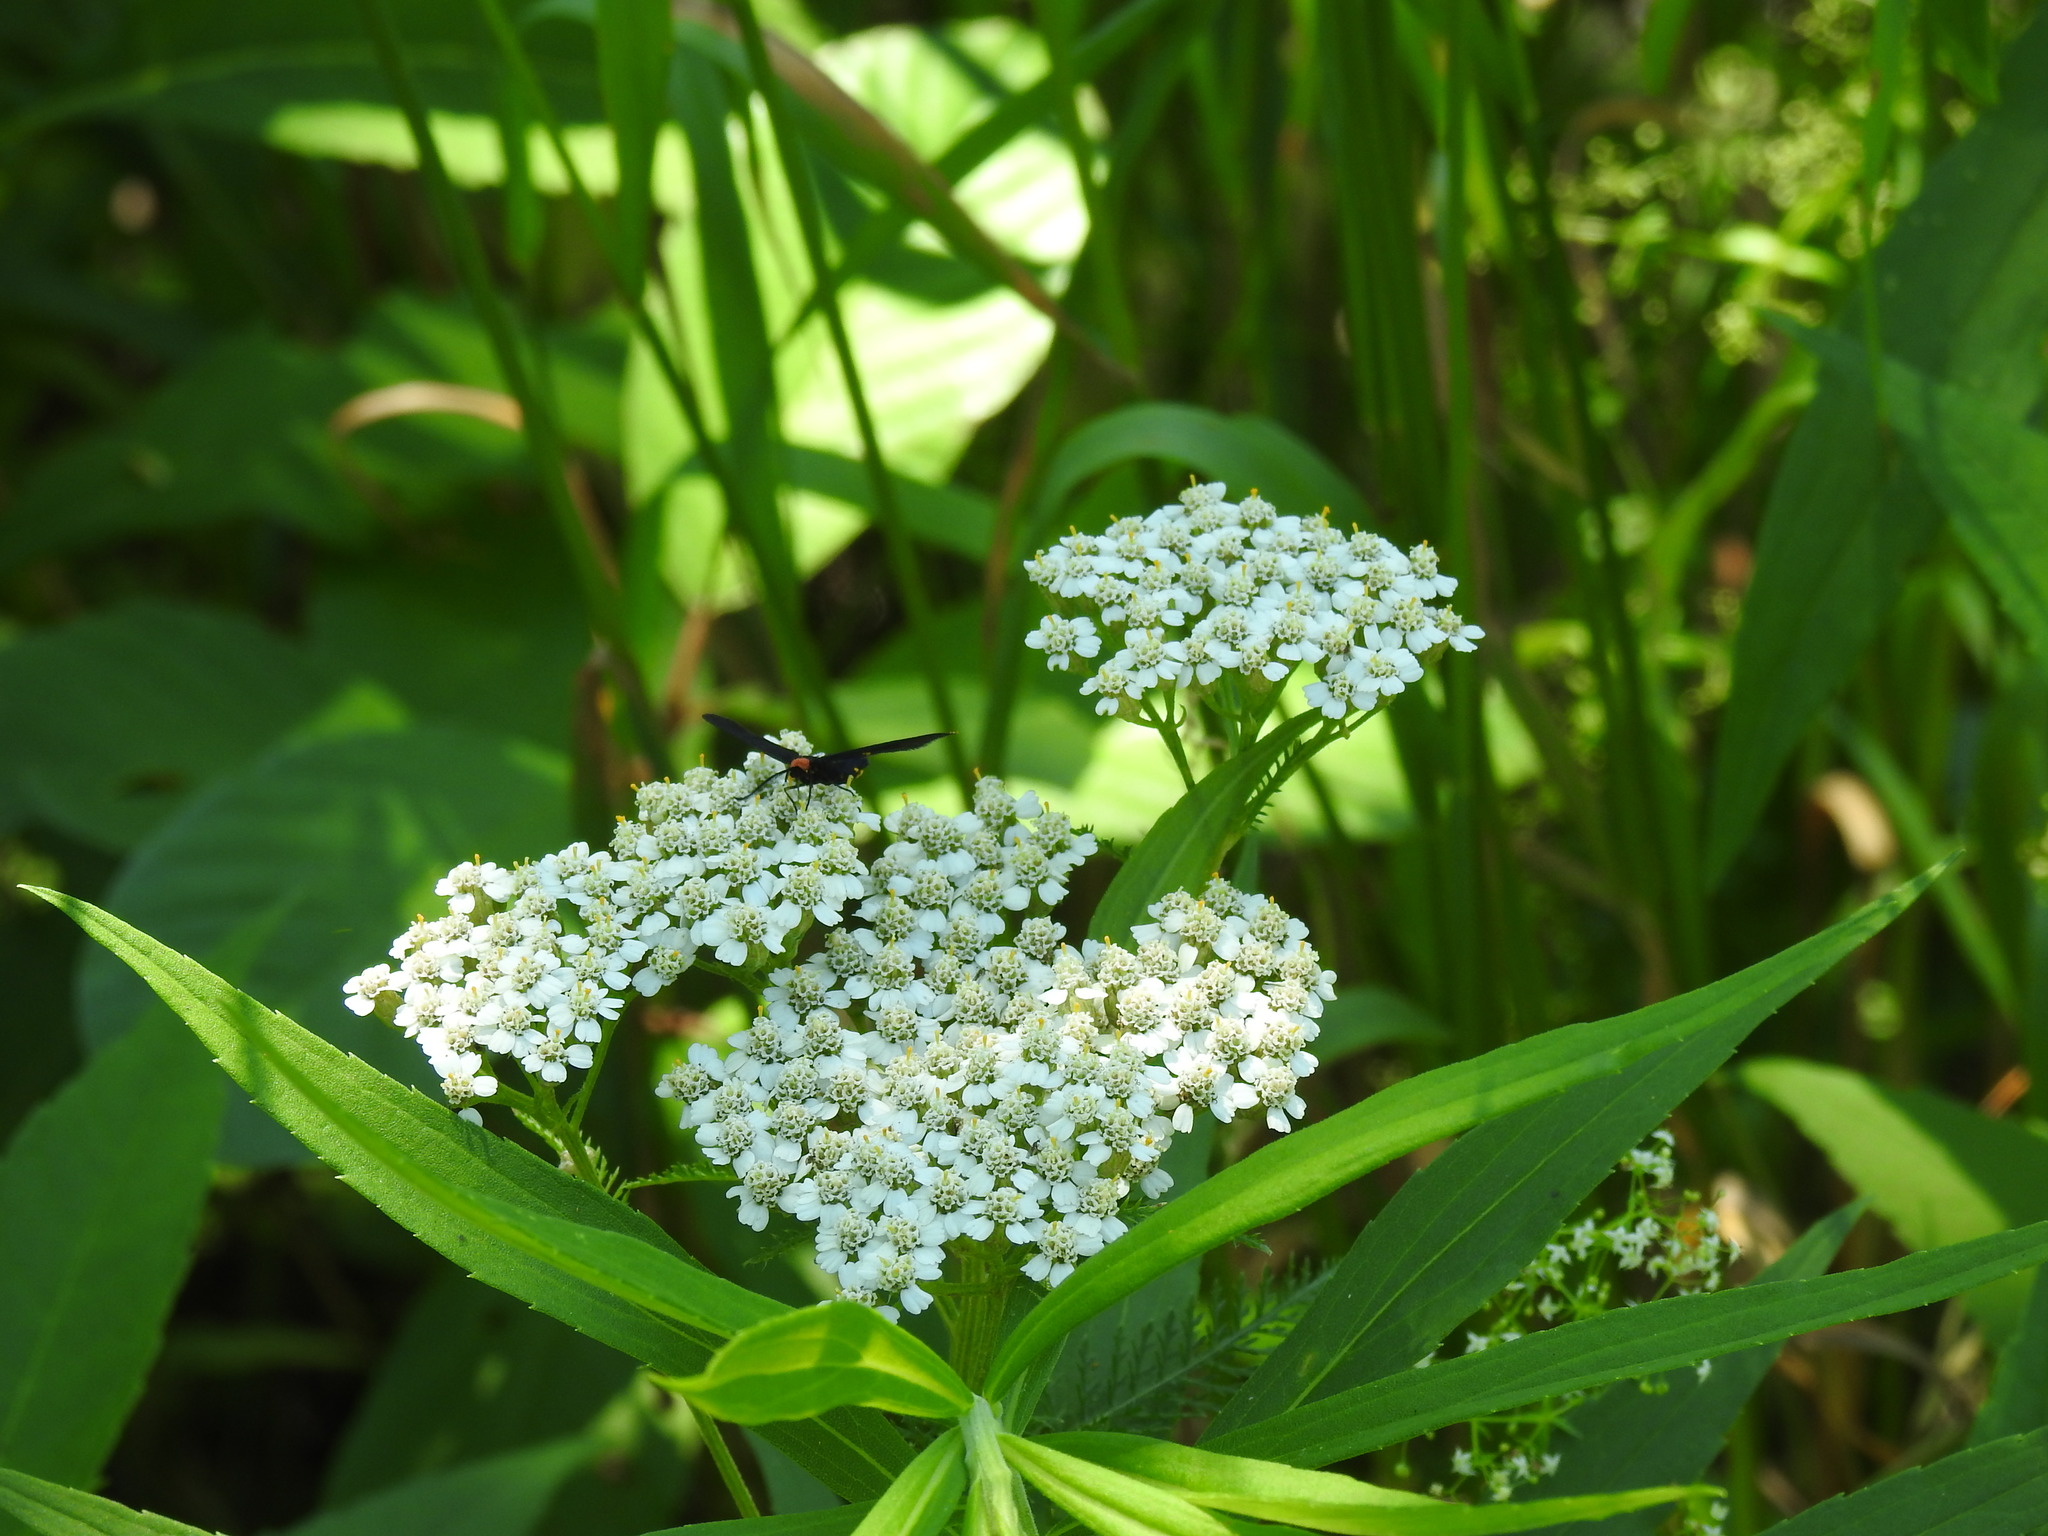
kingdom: Plantae
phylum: Tracheophyta
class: Magnoliopsida
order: Asterales
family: Asteraceae
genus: Achillea
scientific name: Achillea millefolium
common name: Yarrow
